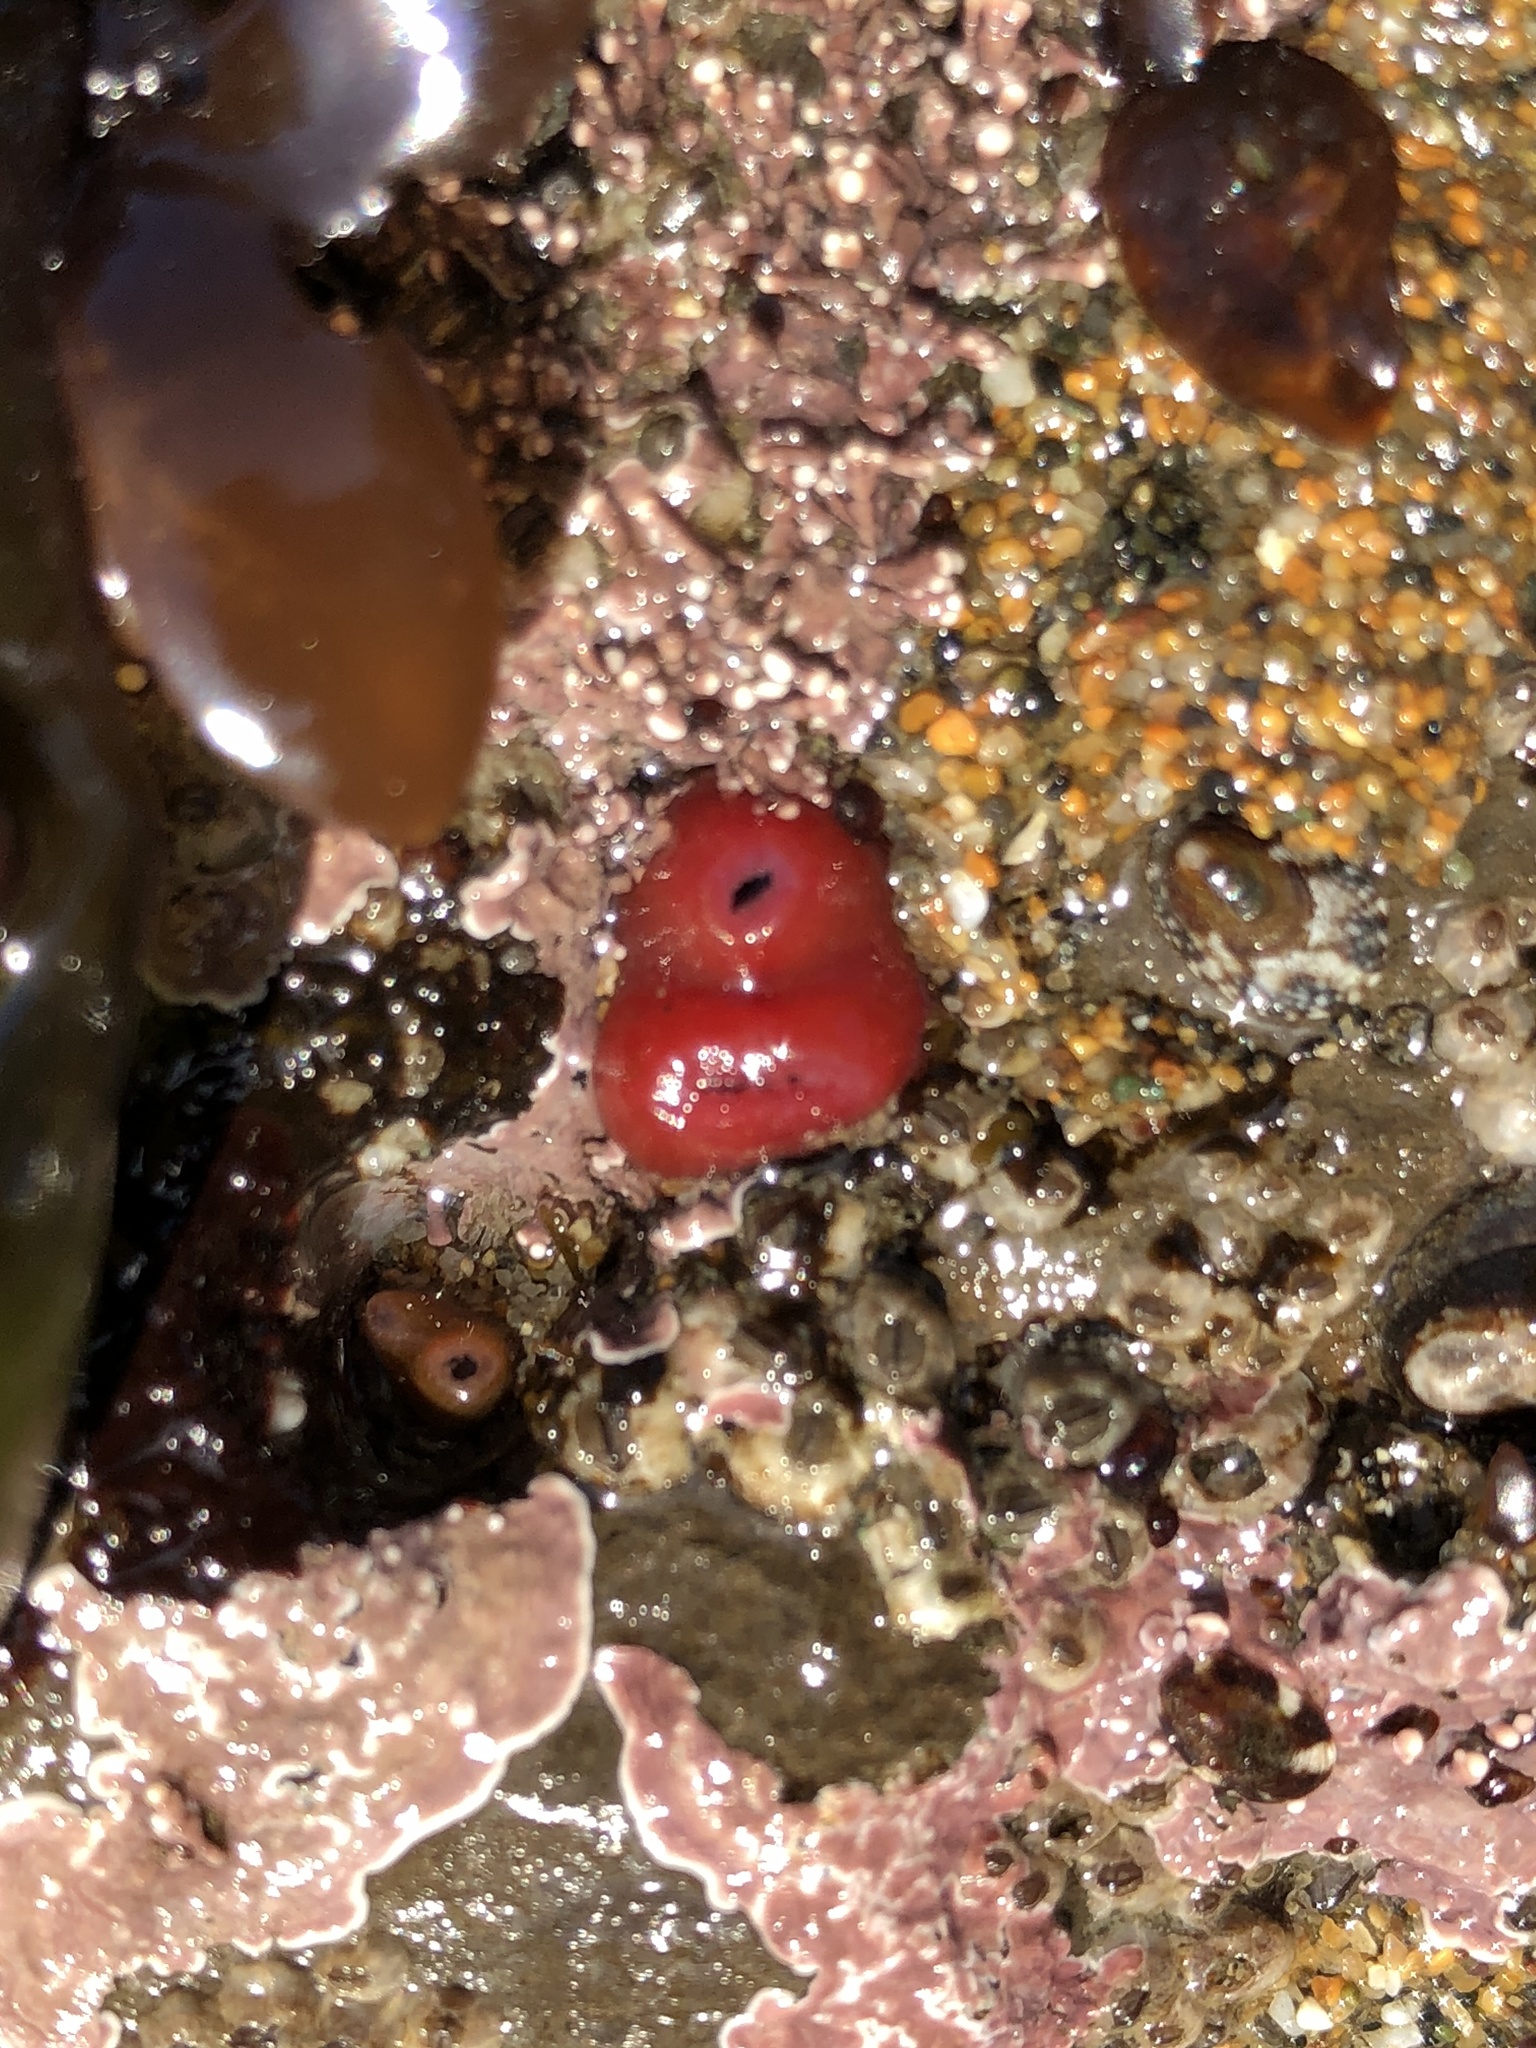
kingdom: Animalia
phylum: Mollusca
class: Bivalvia
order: Adapedonta
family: Hiatellidae
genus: Hiatella
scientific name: Hiatella arctica
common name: Arctic hiatella
